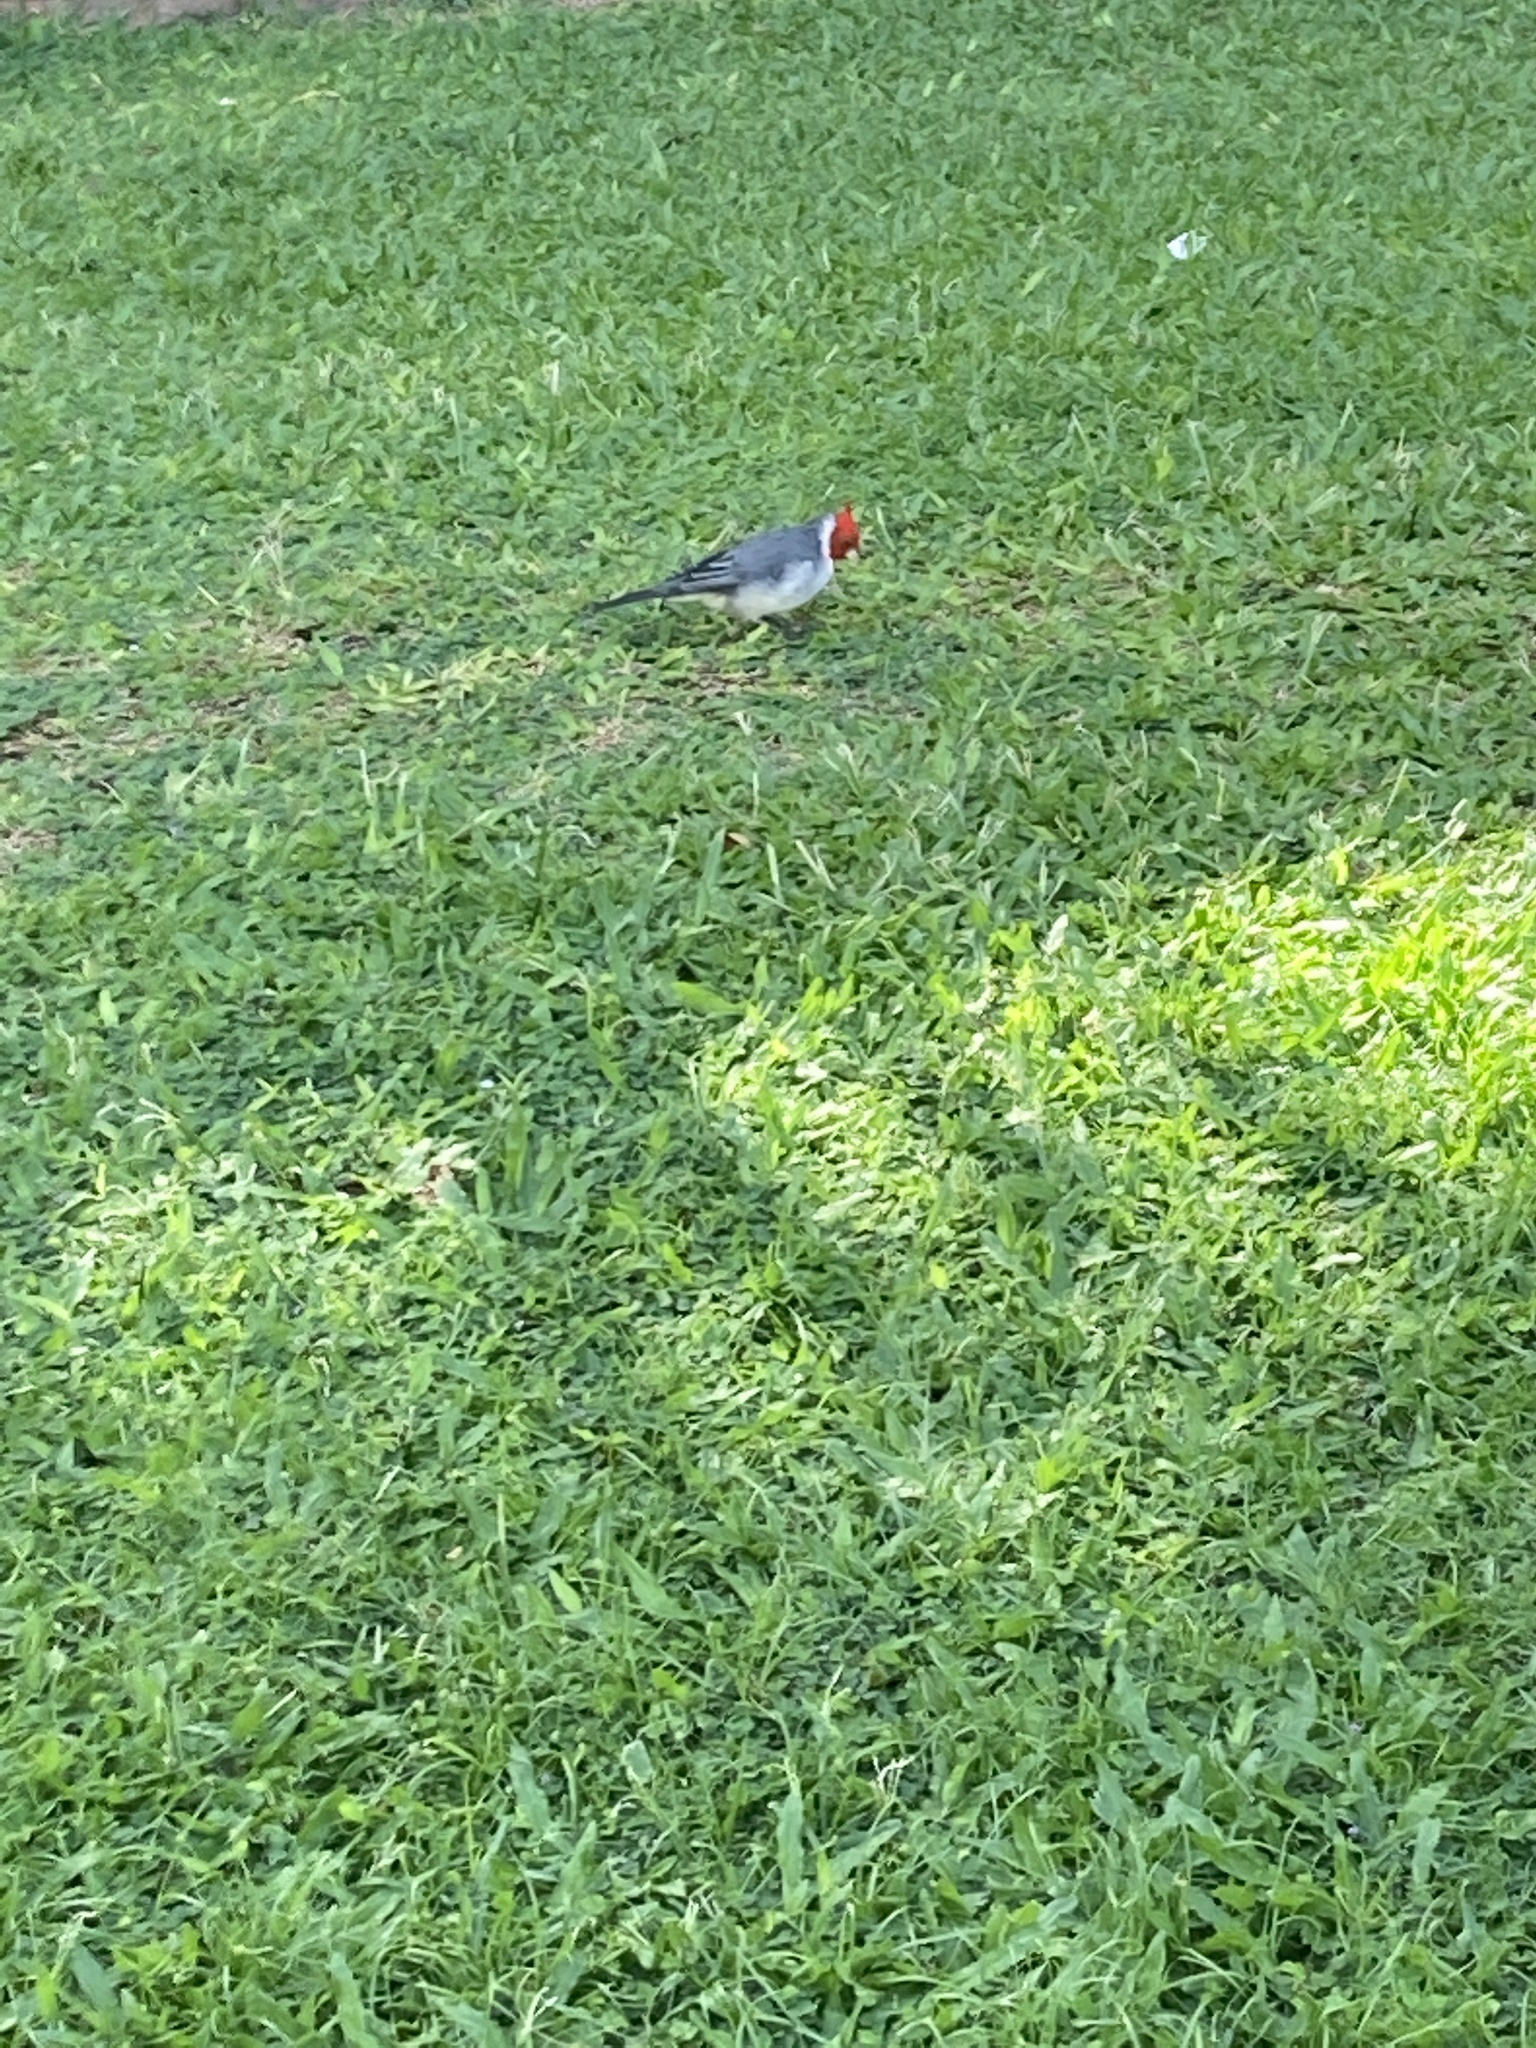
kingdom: Animalia
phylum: Chordata
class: Aves
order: Passeriformes
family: Thraupidae
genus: Paroaria
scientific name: Paroaria coronata
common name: Red-crested cardinal
